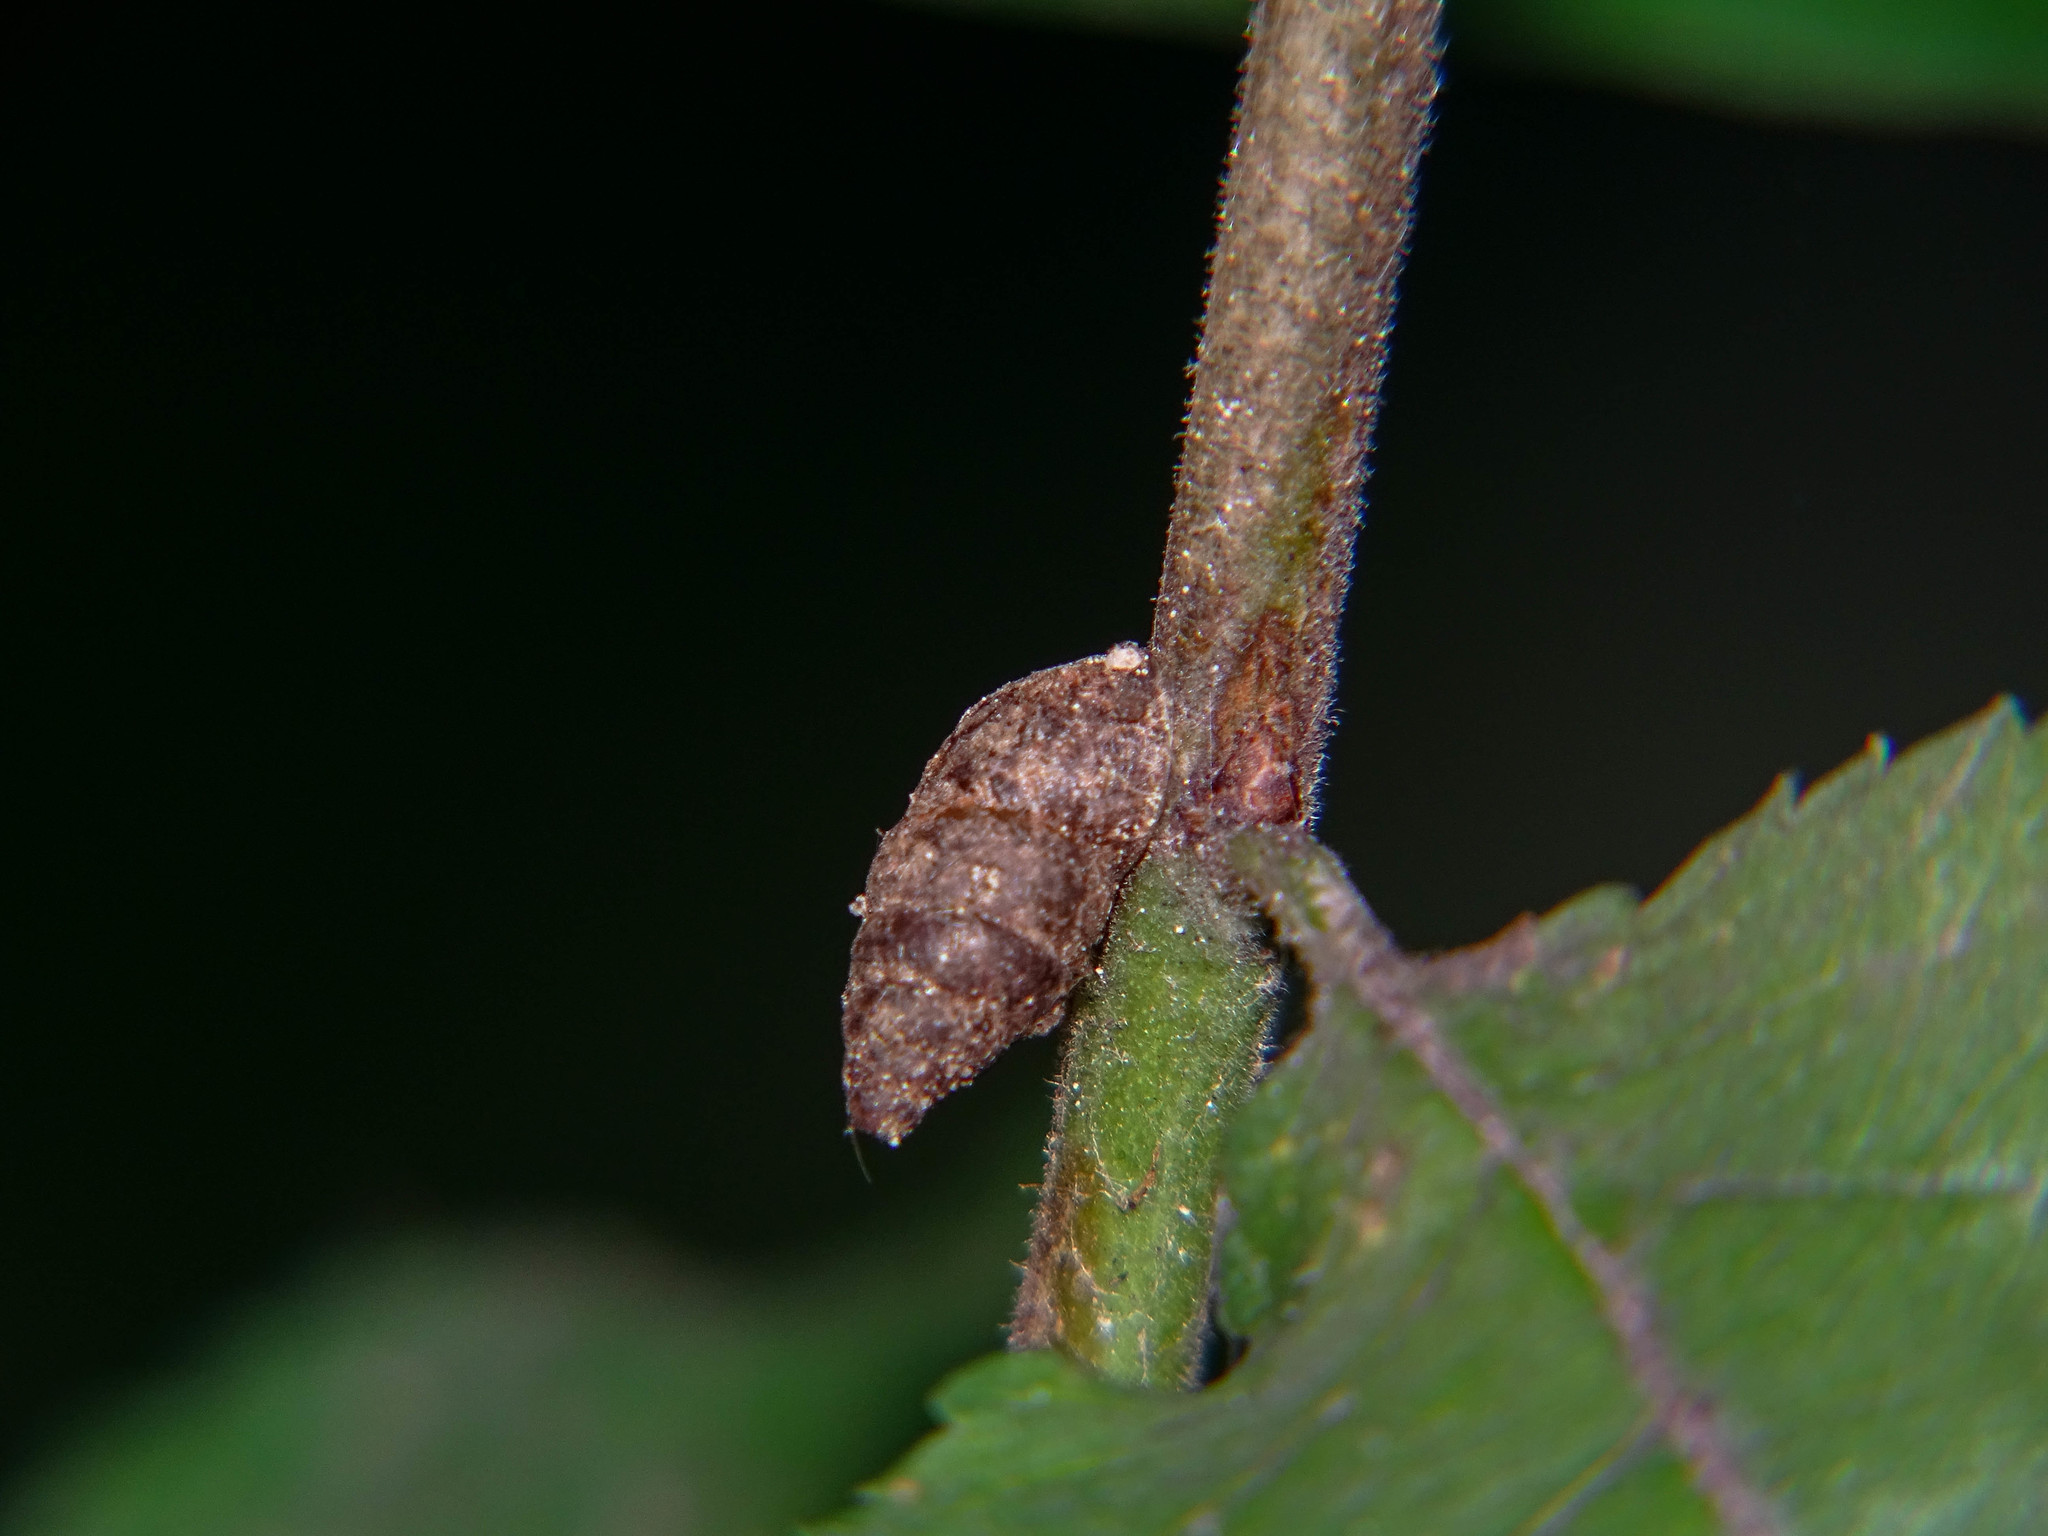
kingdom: Animalia
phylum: Mollusca
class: Gastropoda
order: Stylommatophora
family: Enidae
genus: Merdigera
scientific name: Merdigera obscura
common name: Lesser bulin
